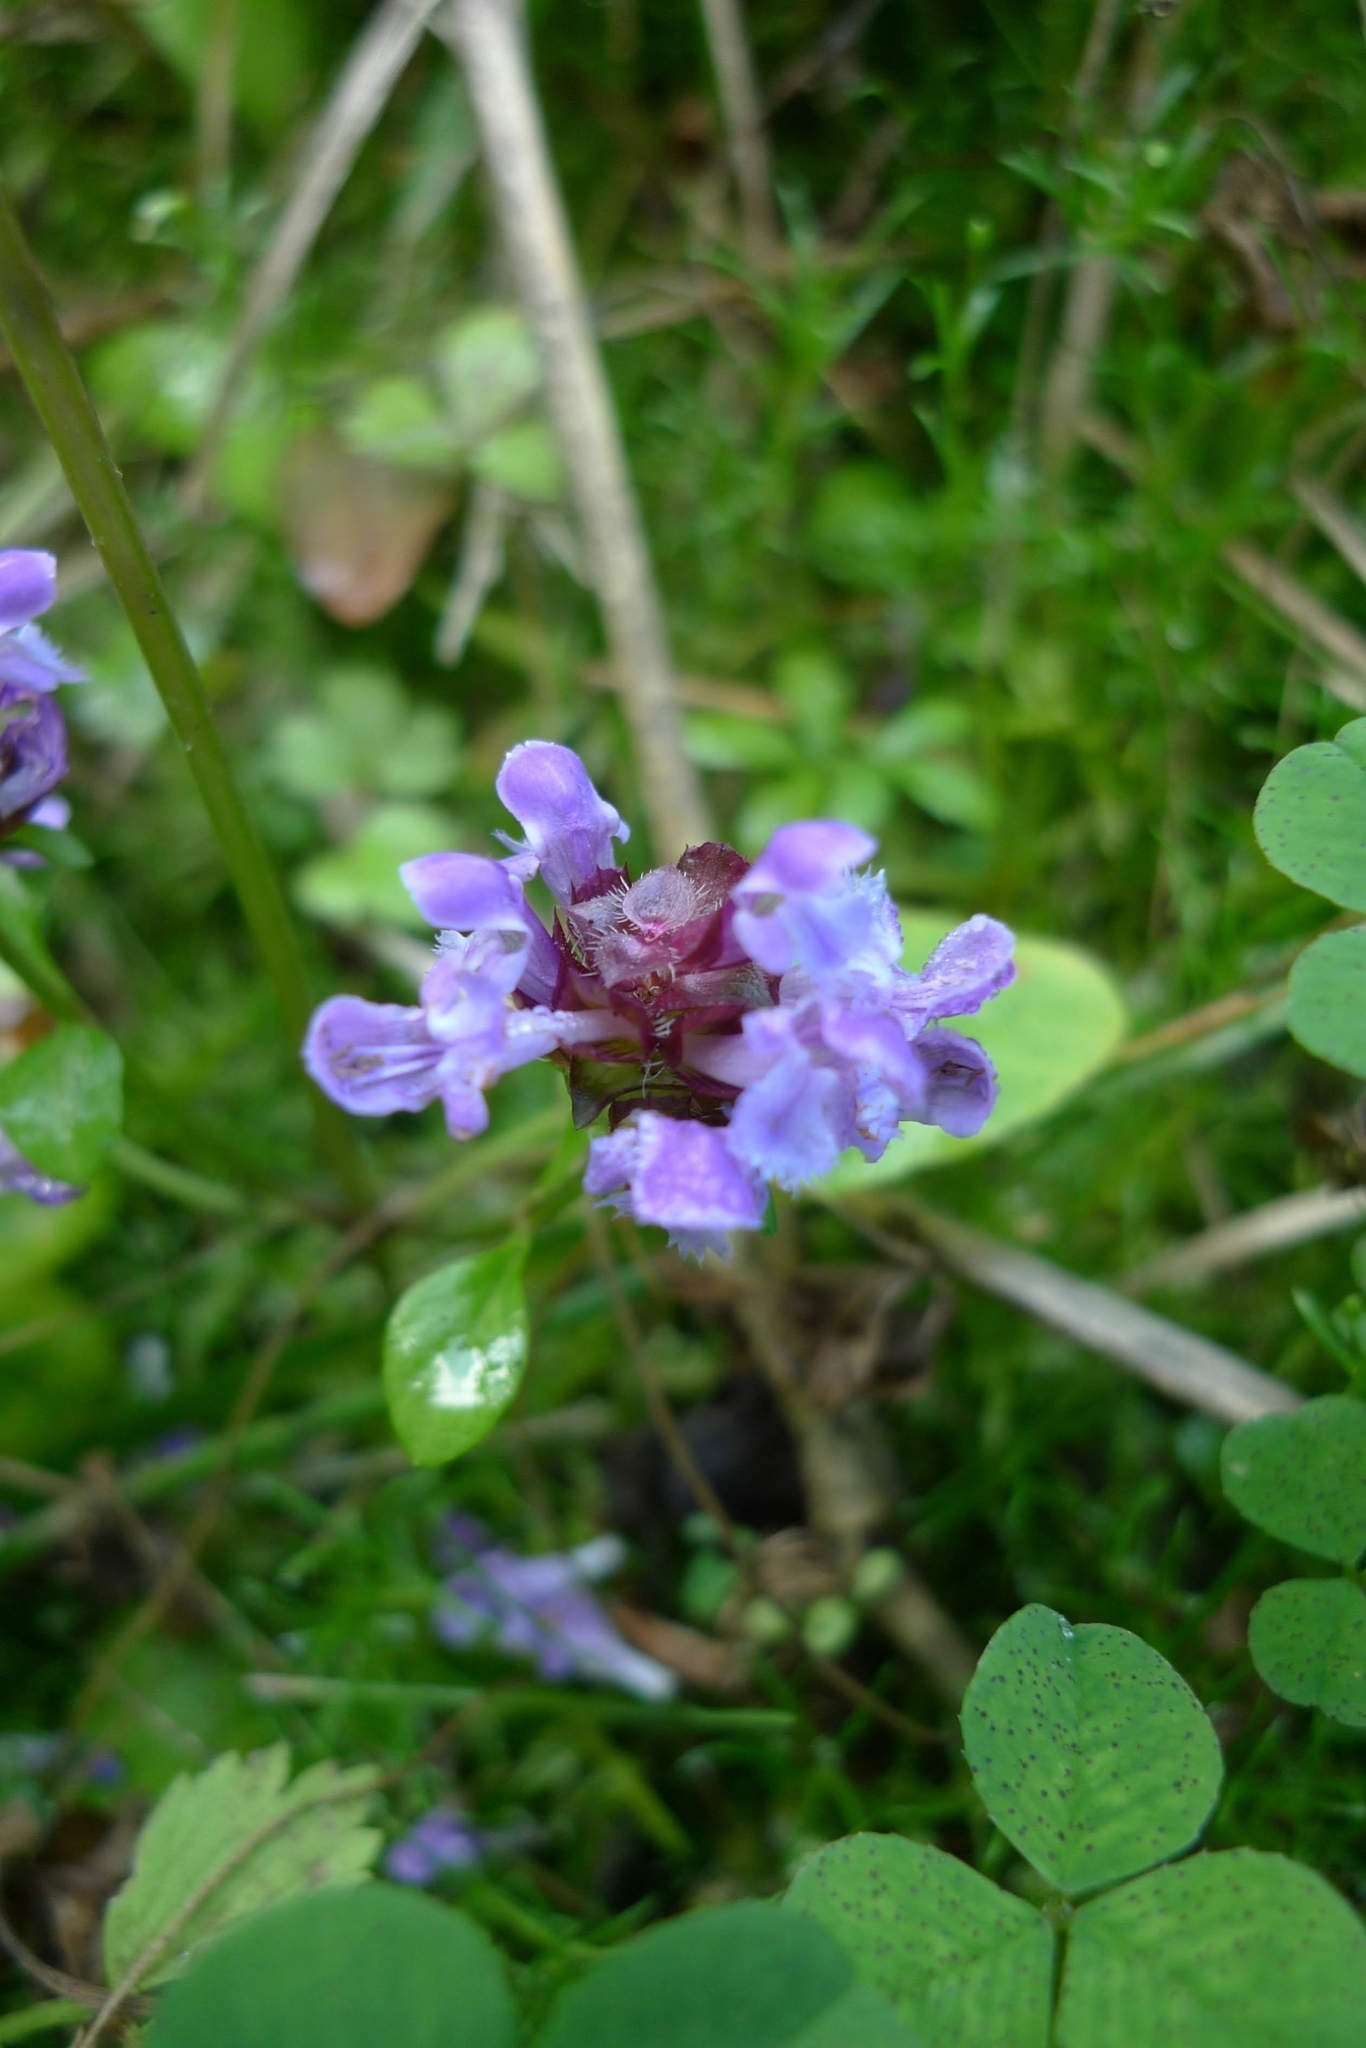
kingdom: Plantae
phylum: Tracheophyta
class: Magnoliopsida
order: Lamiales
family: Lamiaceae
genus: Prunella
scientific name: Prunella vulgaris
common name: Heal-all
